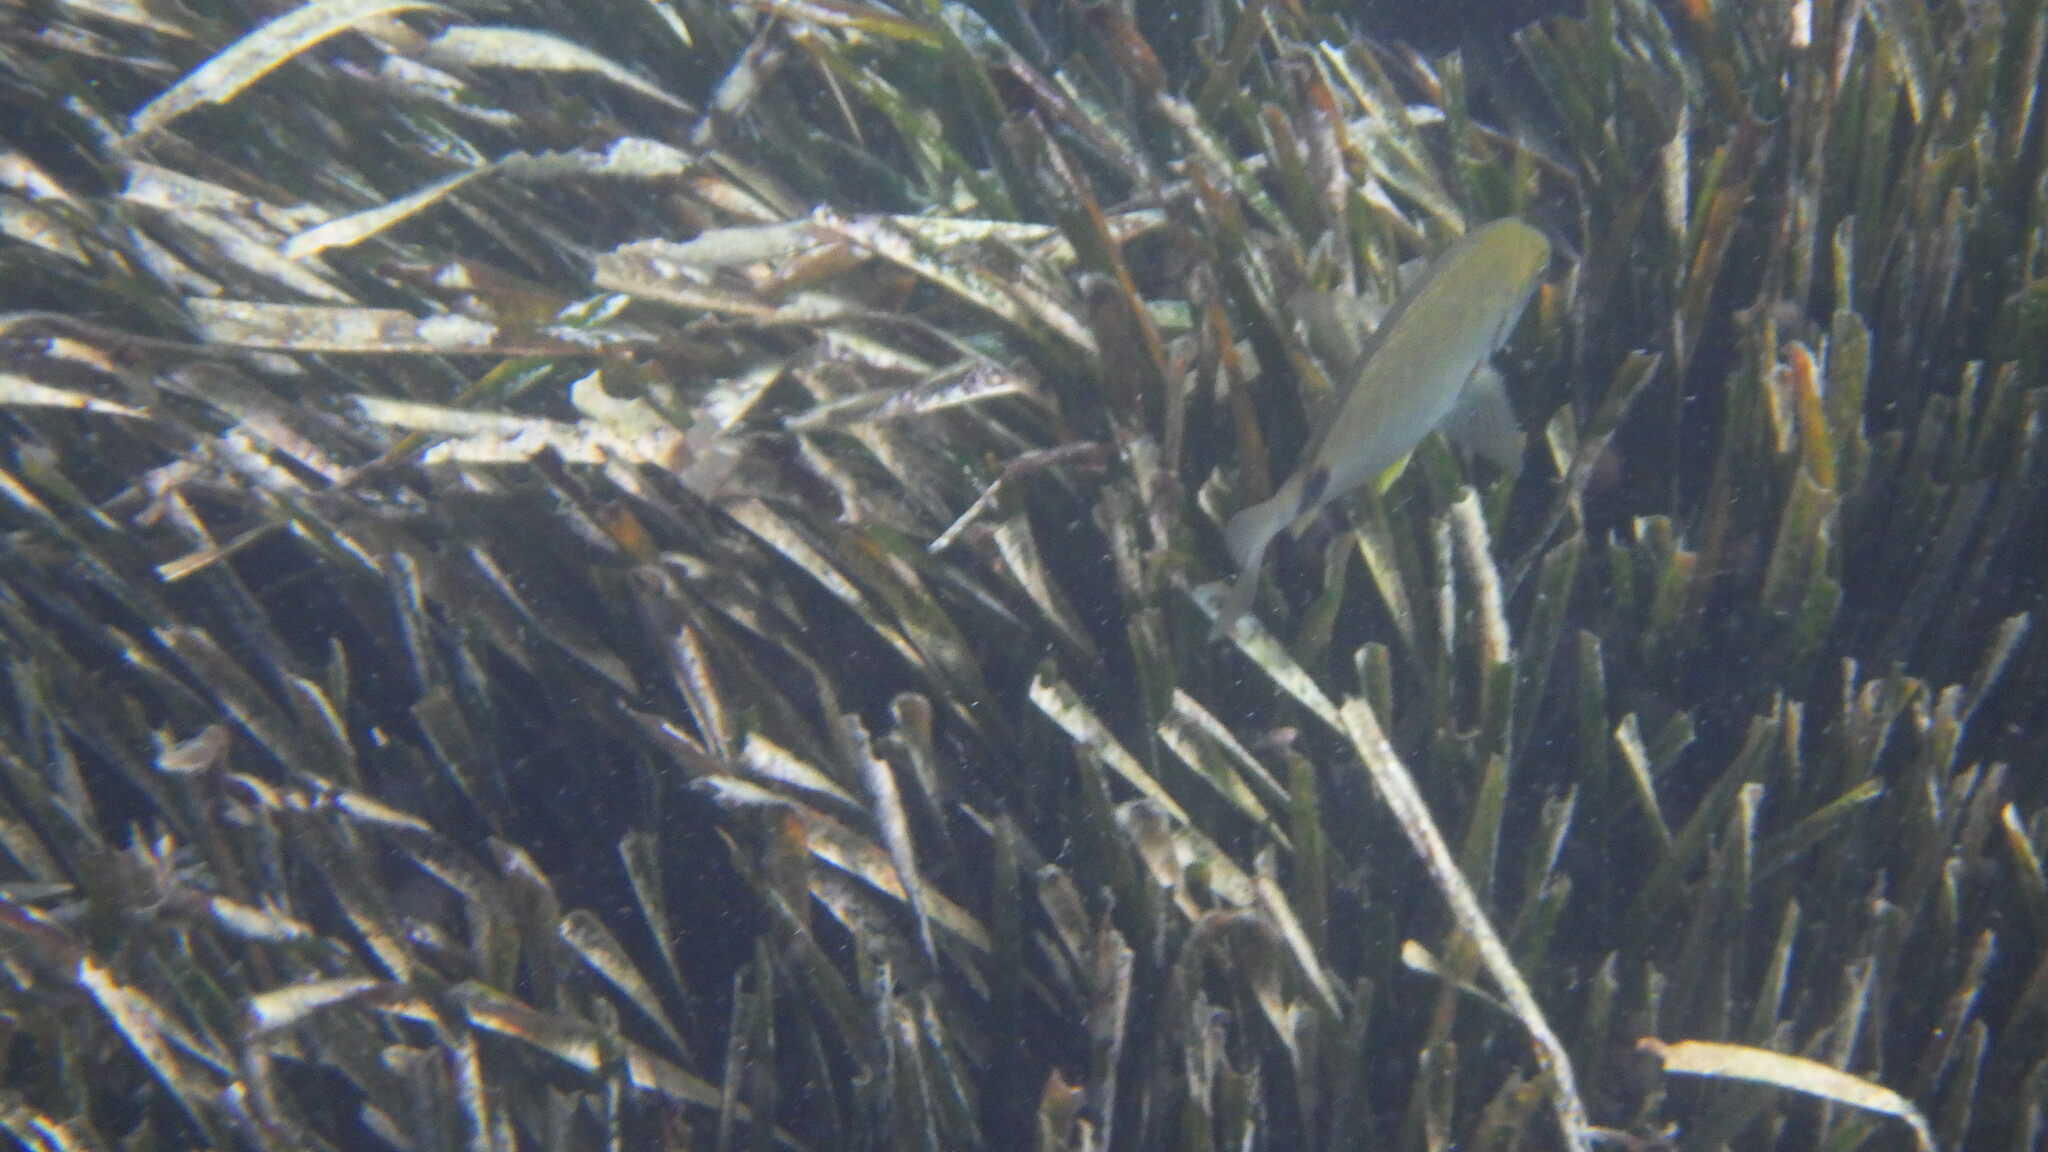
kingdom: Animalia
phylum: Chordata
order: Perciformes
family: Sparidae
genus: Diplodus
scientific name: Diplodus annularis
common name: Annular seabream
